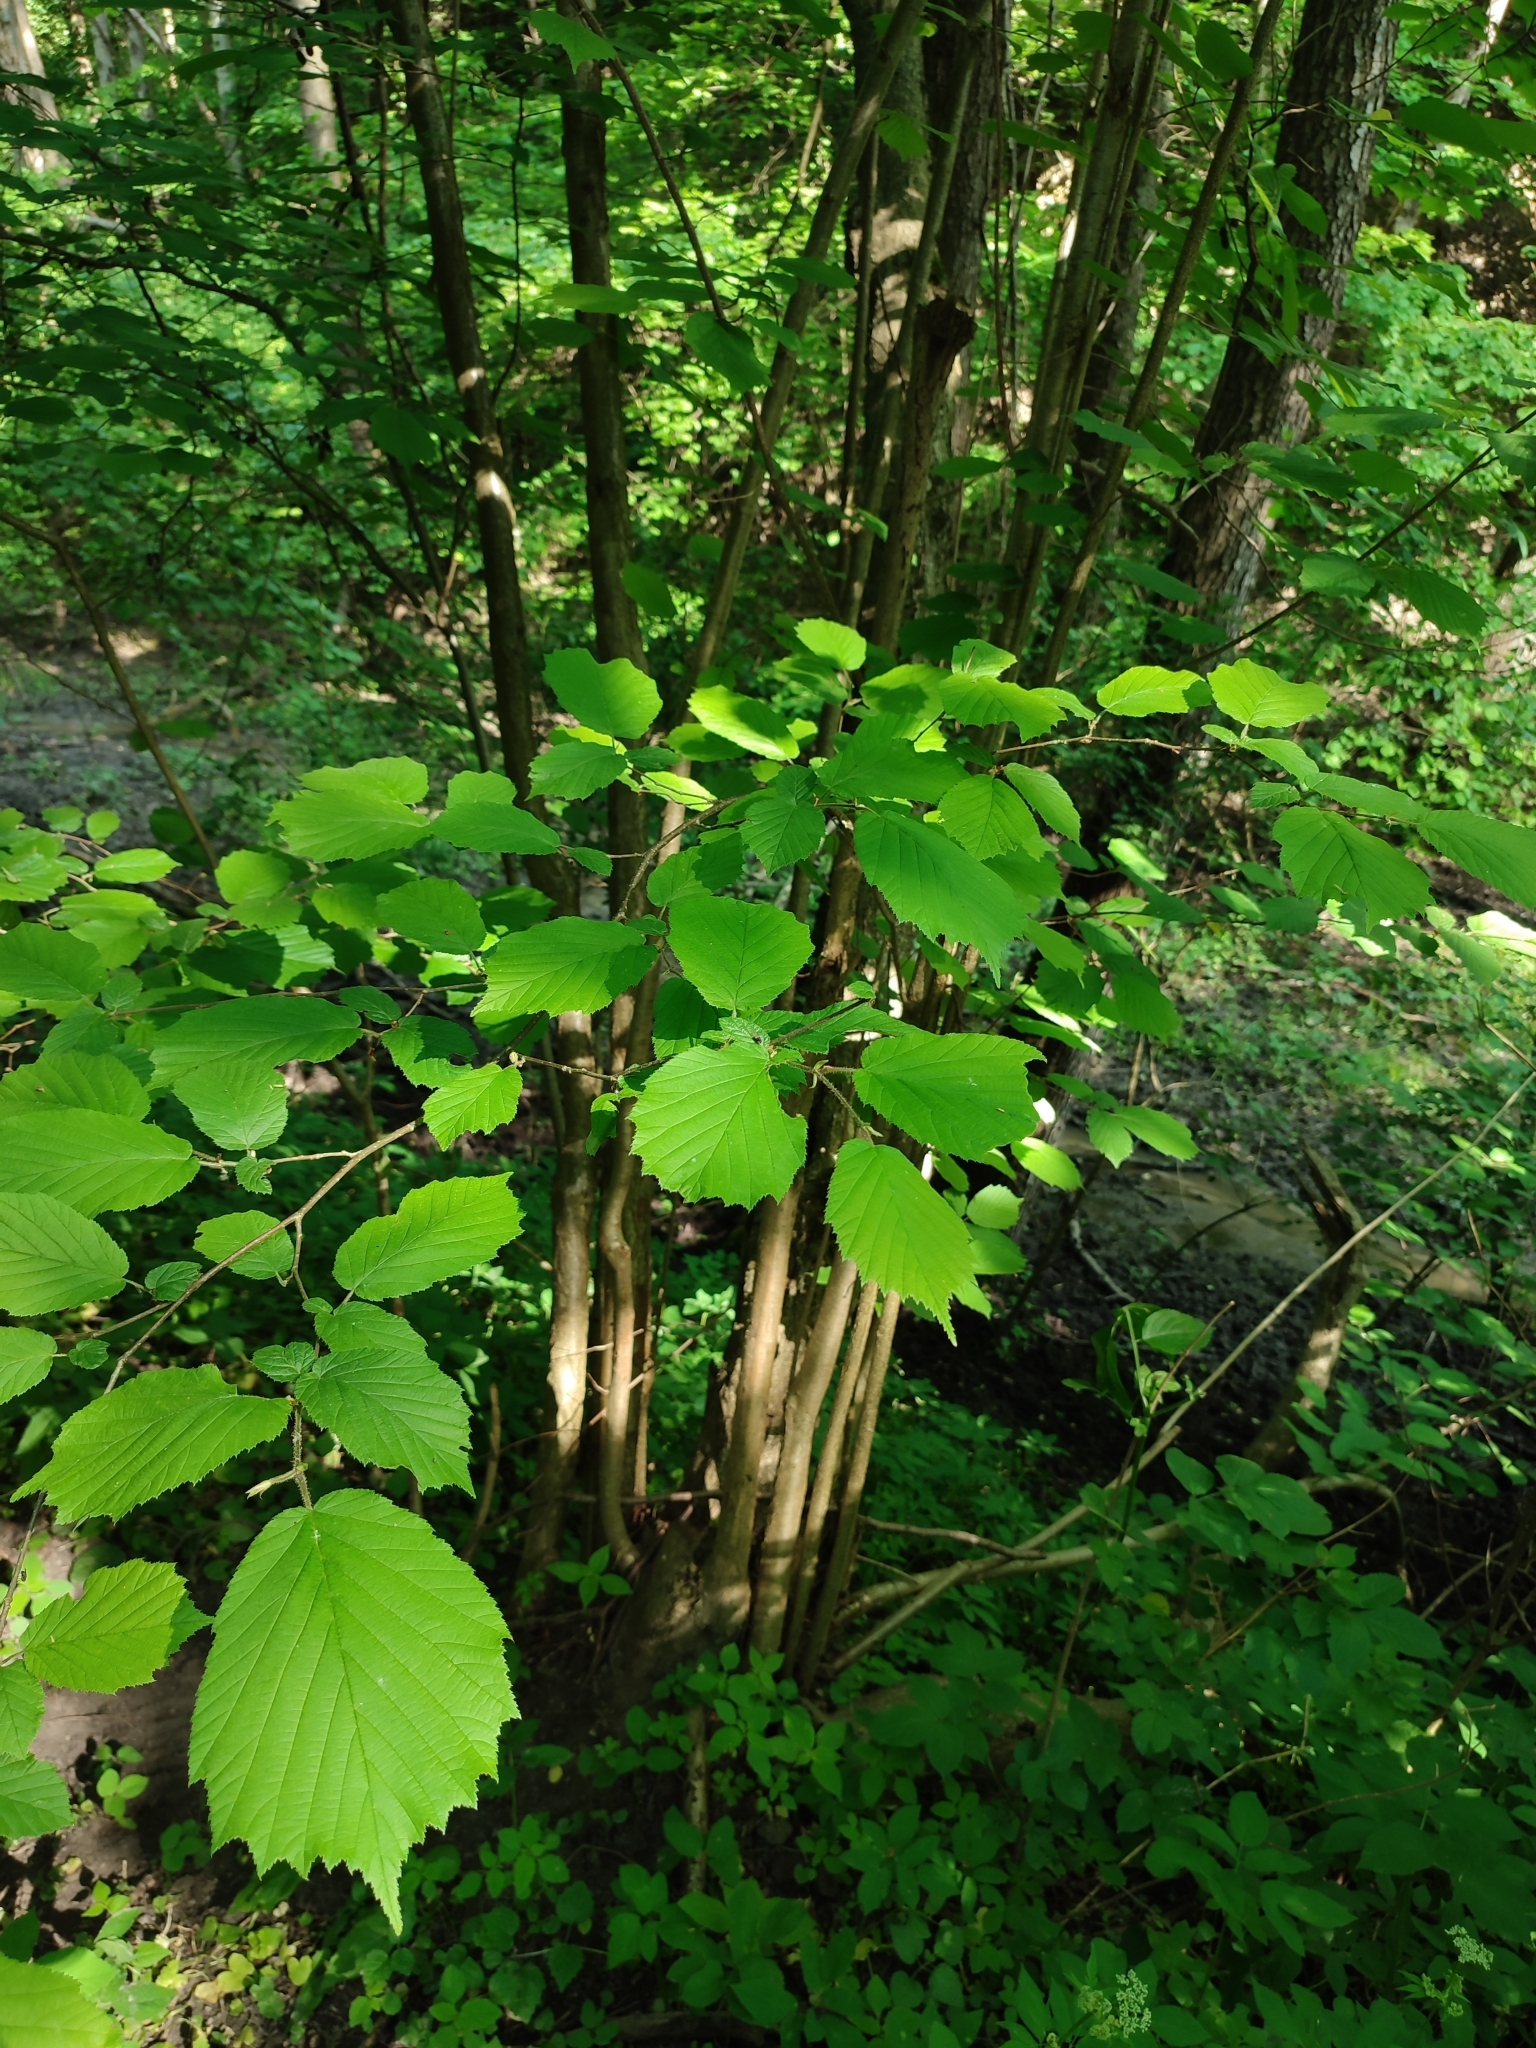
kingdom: Plantae
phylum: Tracheophyta
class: Magnoliopsida
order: Fagales
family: Betulaceae
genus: Corylus
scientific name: Corylus avellana
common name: European hazel
